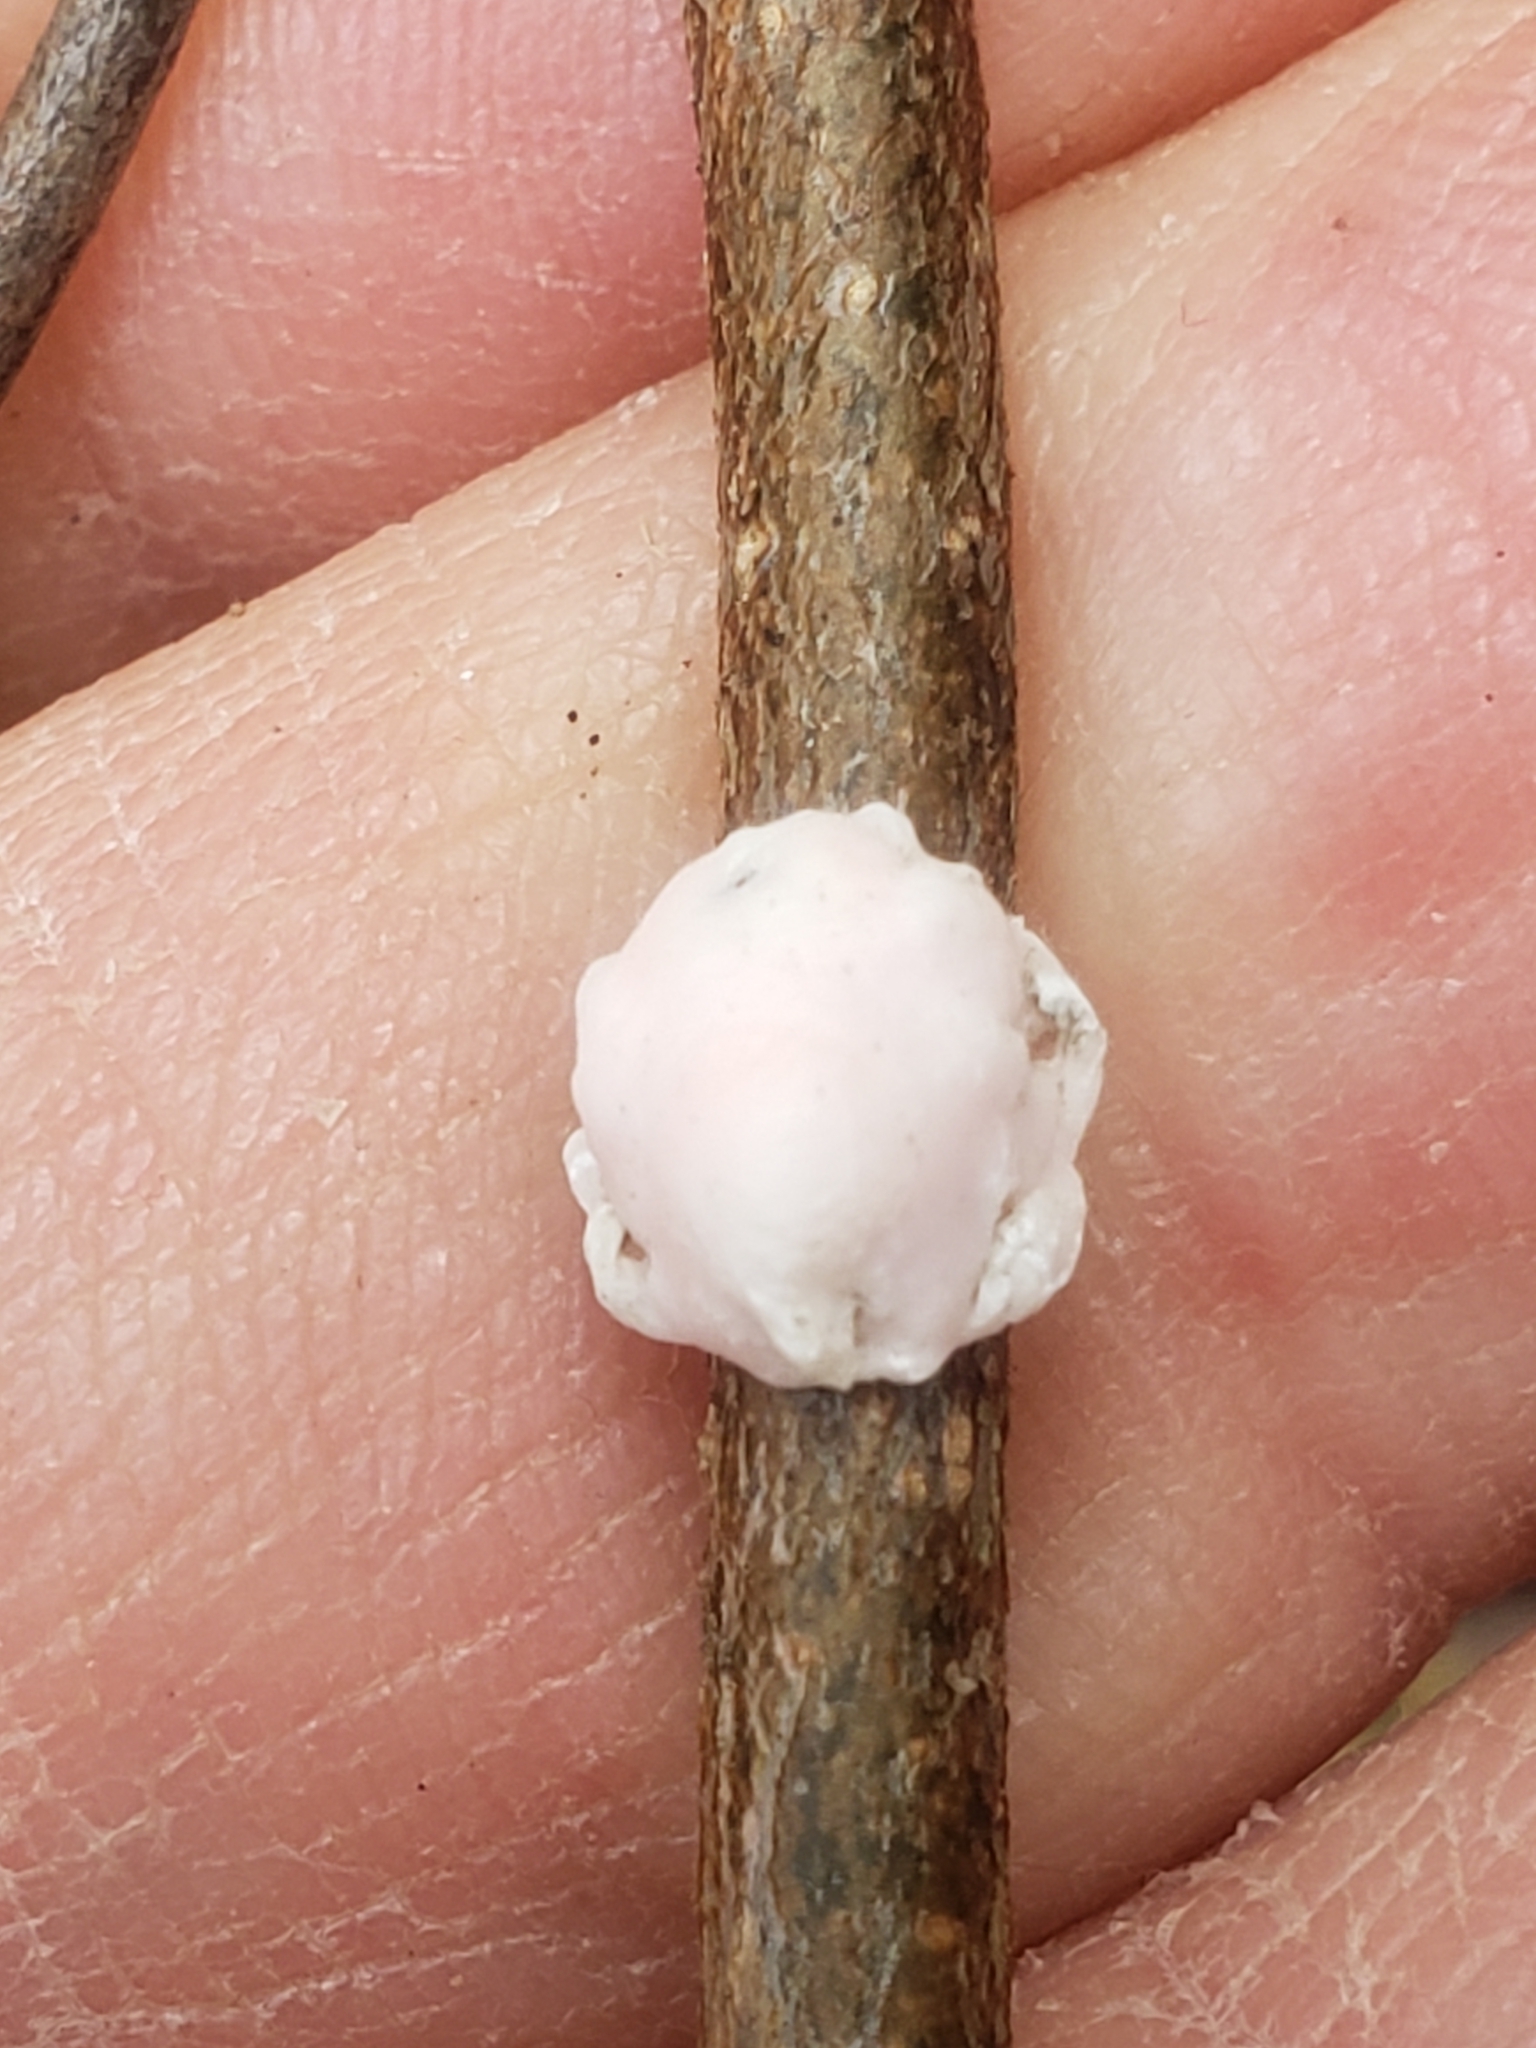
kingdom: Animalia
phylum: Arthropoda
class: Insecta
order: Hemiptera
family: Coccidae
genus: Ceroplastes
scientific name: Ceroplastes ceriferus
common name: Indian wax scale
